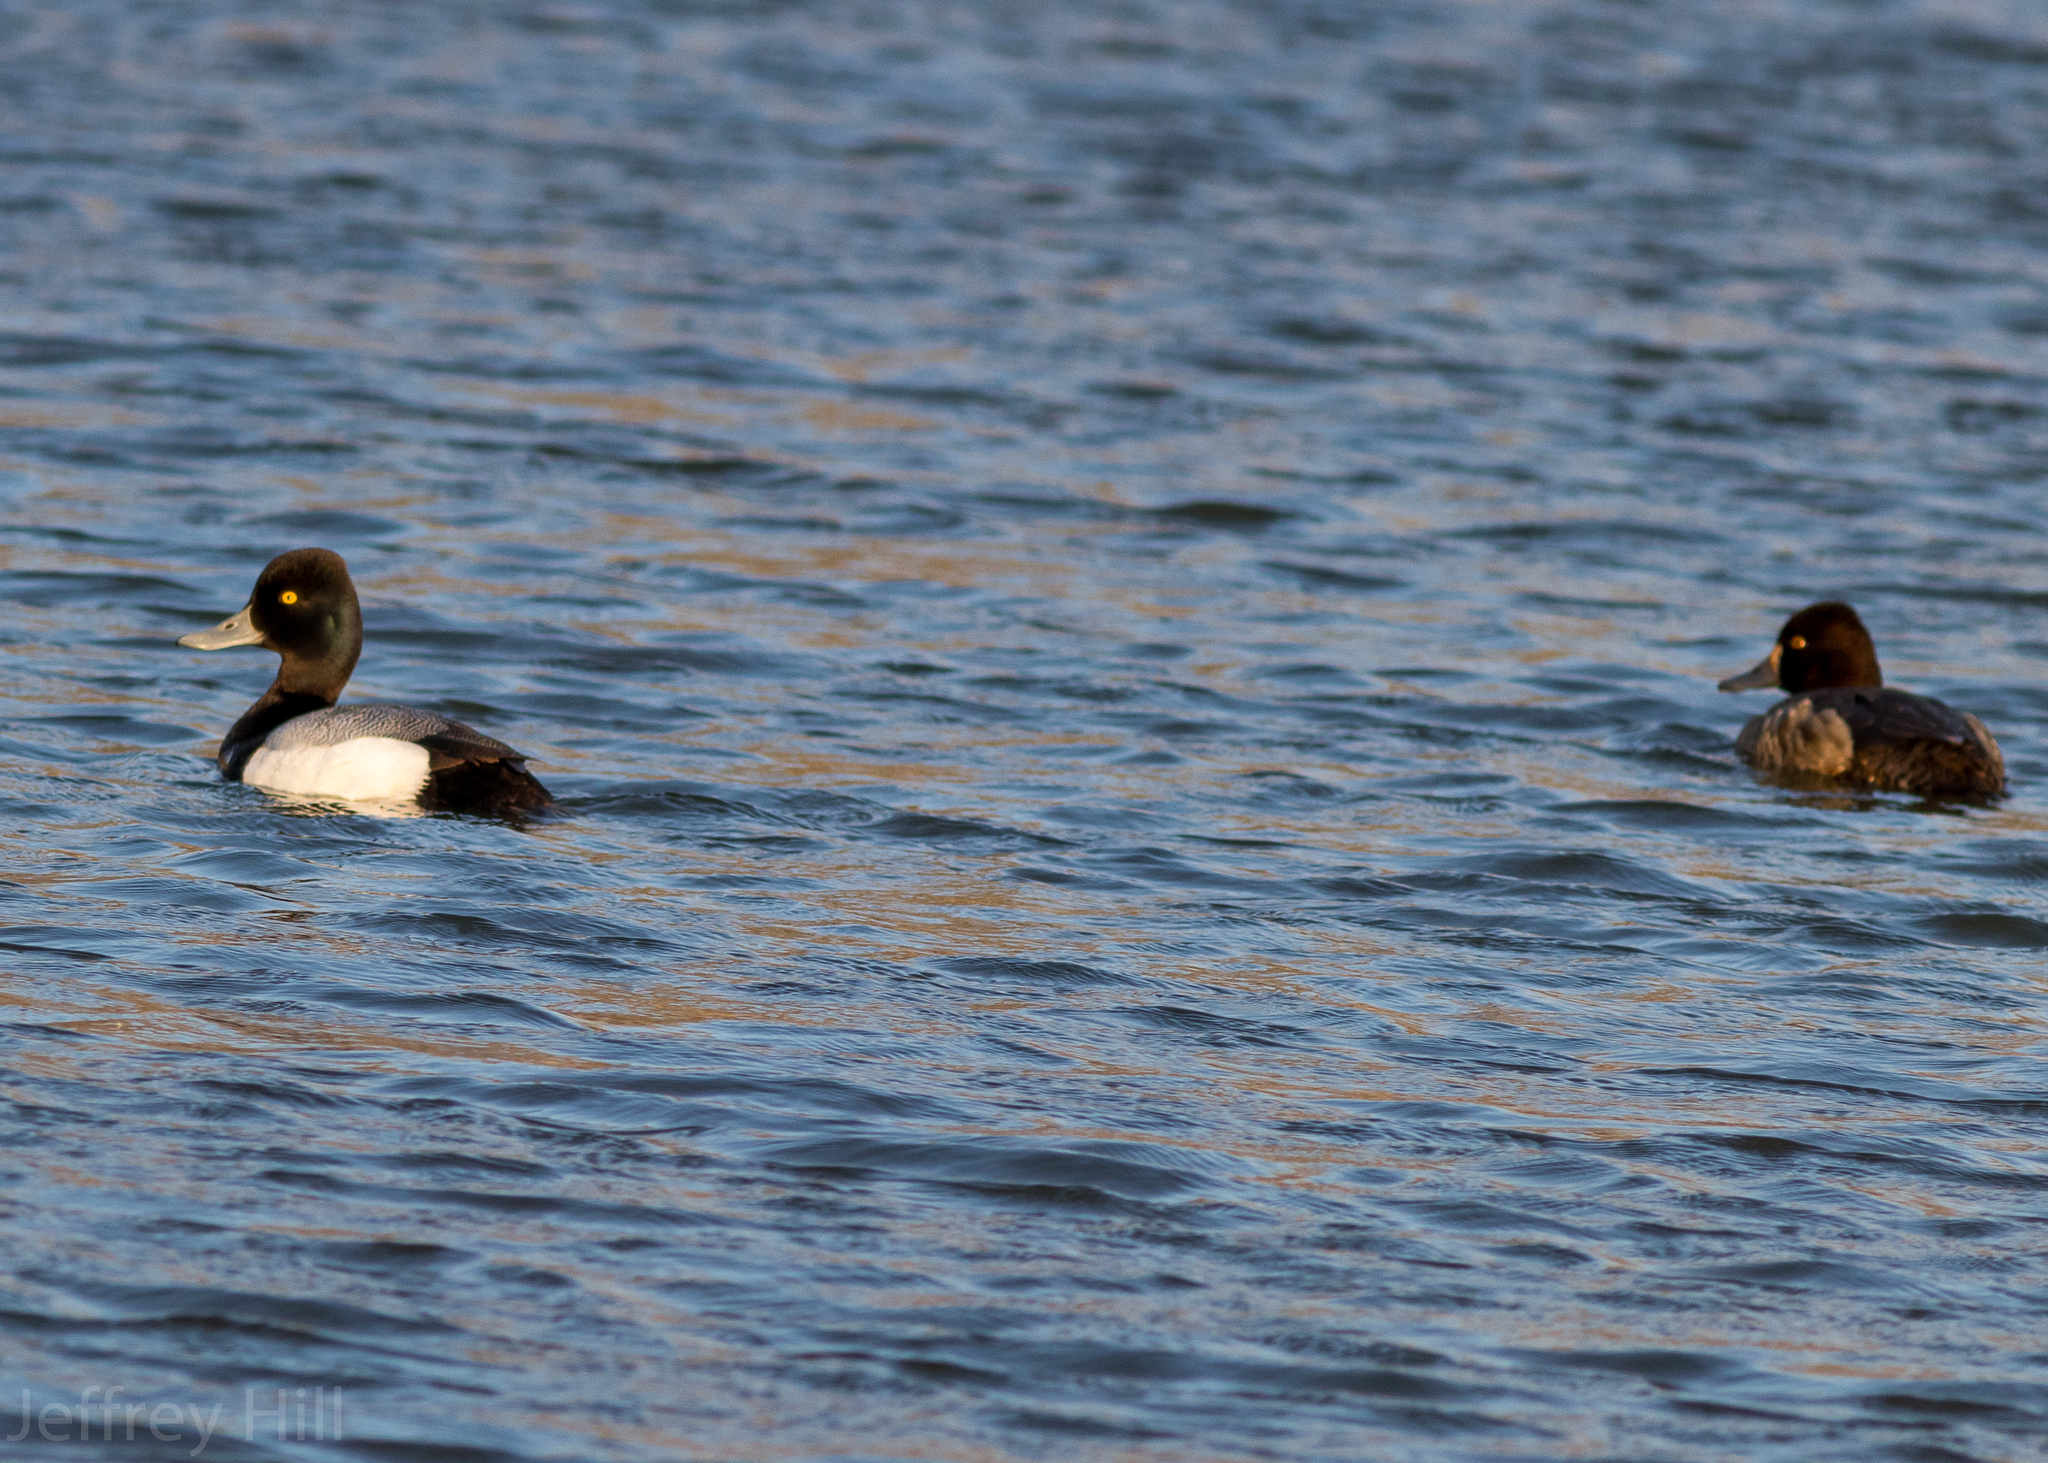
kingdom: Animalia
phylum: Chordata
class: Aves
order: Anseriformes
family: Anatidae
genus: Aythya
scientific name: Aythya affinis
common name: Lesser scaup
